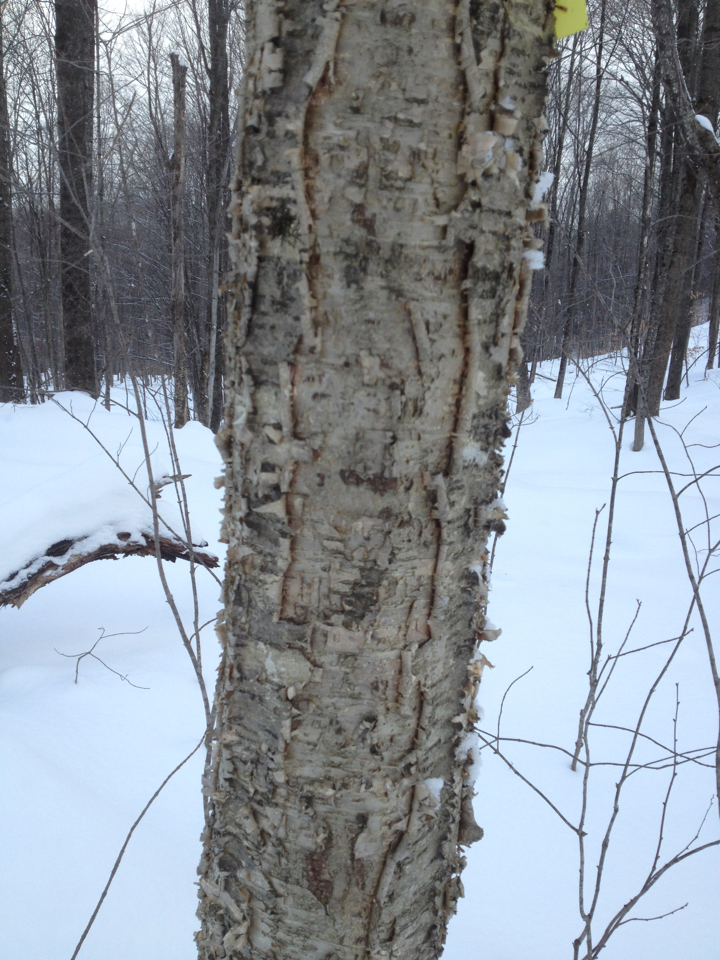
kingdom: Plantae
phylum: Tracheophyta
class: Magnoliopsida
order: Fagales
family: Betulaceae
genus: Betula
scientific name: Betula alleghaniensis
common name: Yellow birch
